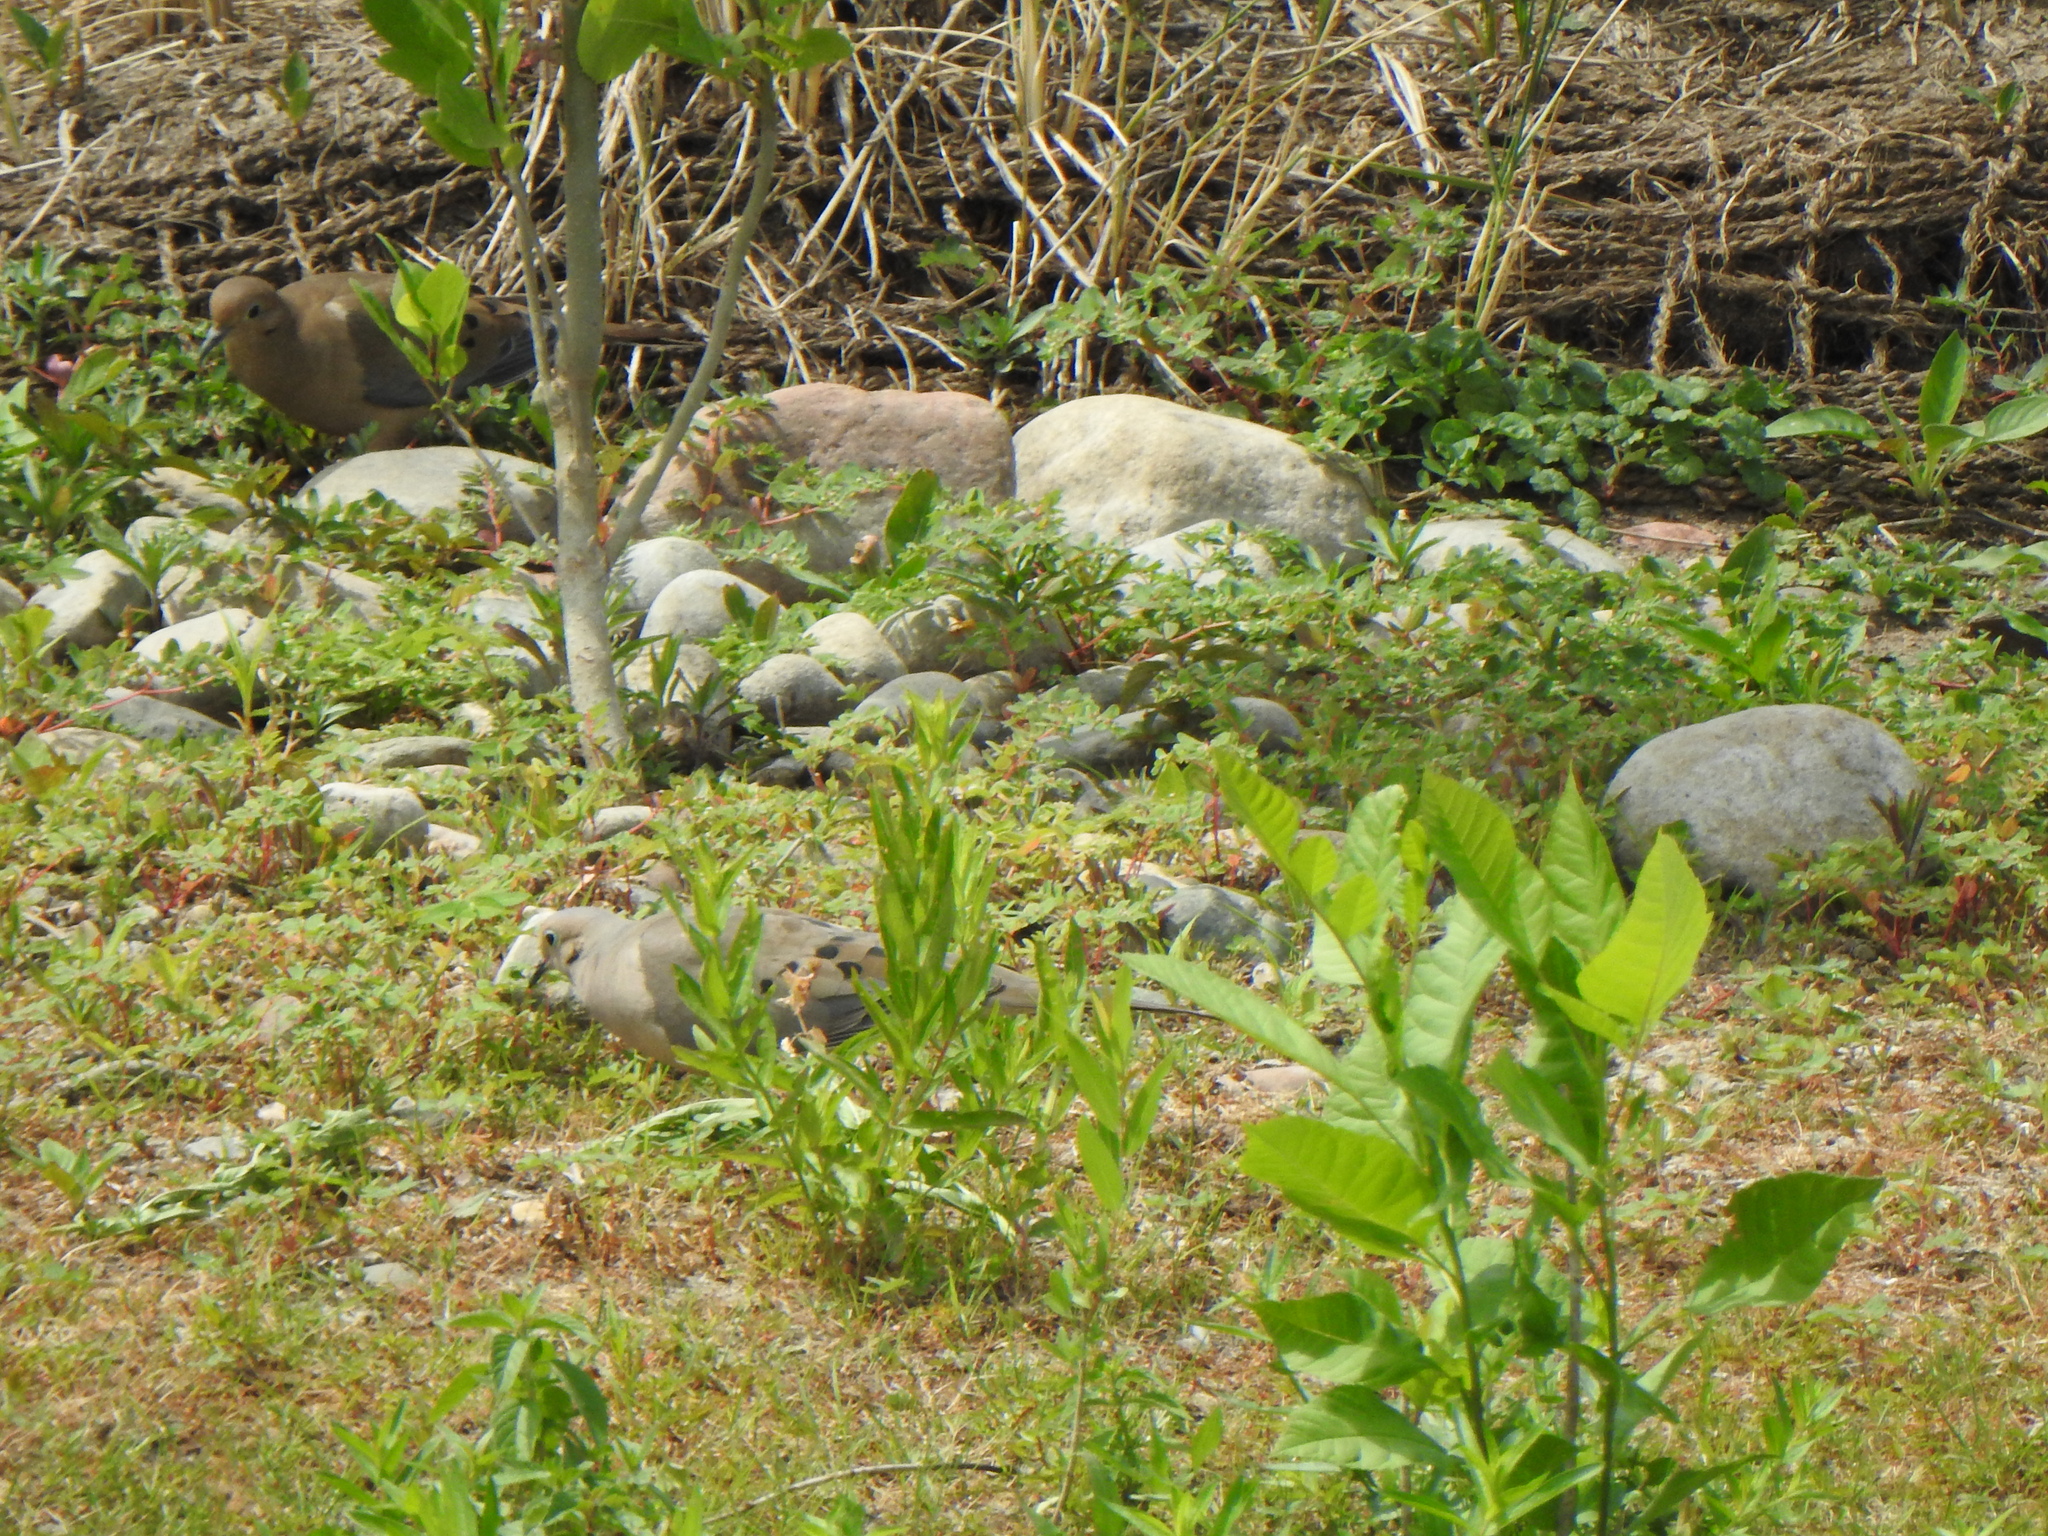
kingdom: Animalia
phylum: Chordata
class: Aves
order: Columbiformes
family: Columbidae
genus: Zenaida
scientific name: Zenaida macroura
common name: Mourning dove
